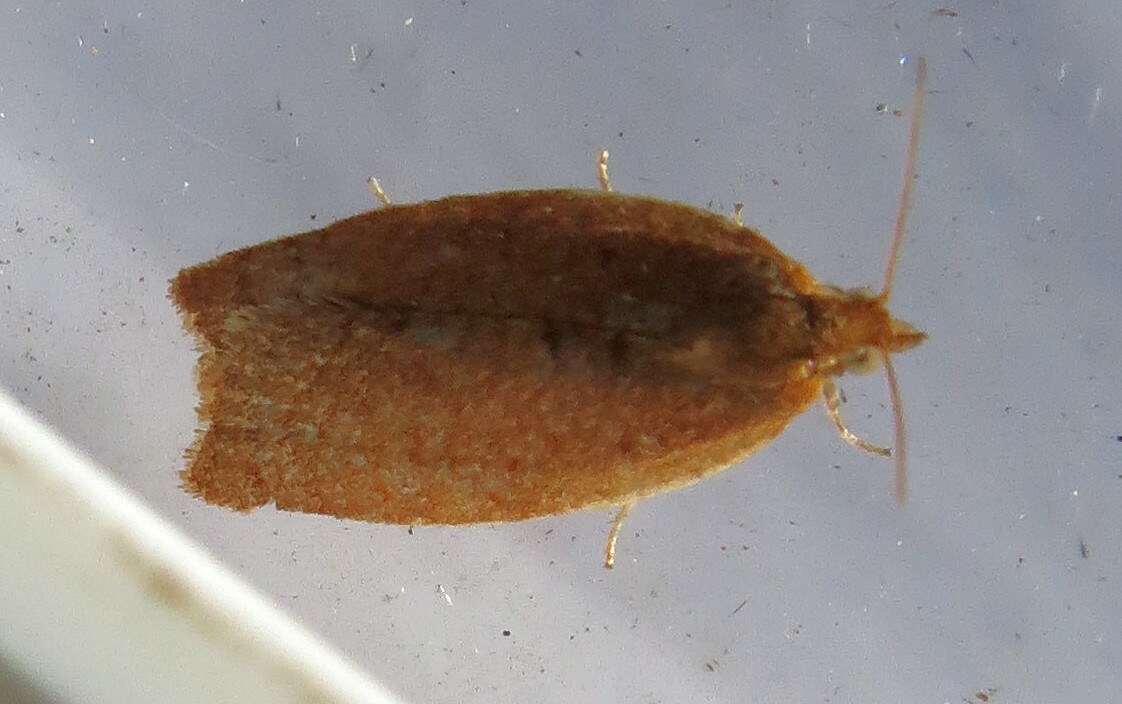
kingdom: Animalia
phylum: Arthropoda
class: Insecta
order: Lepidoptera
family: Tortricidae
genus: Clepsis
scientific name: Clepsis consimilana
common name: Privet tortrix
